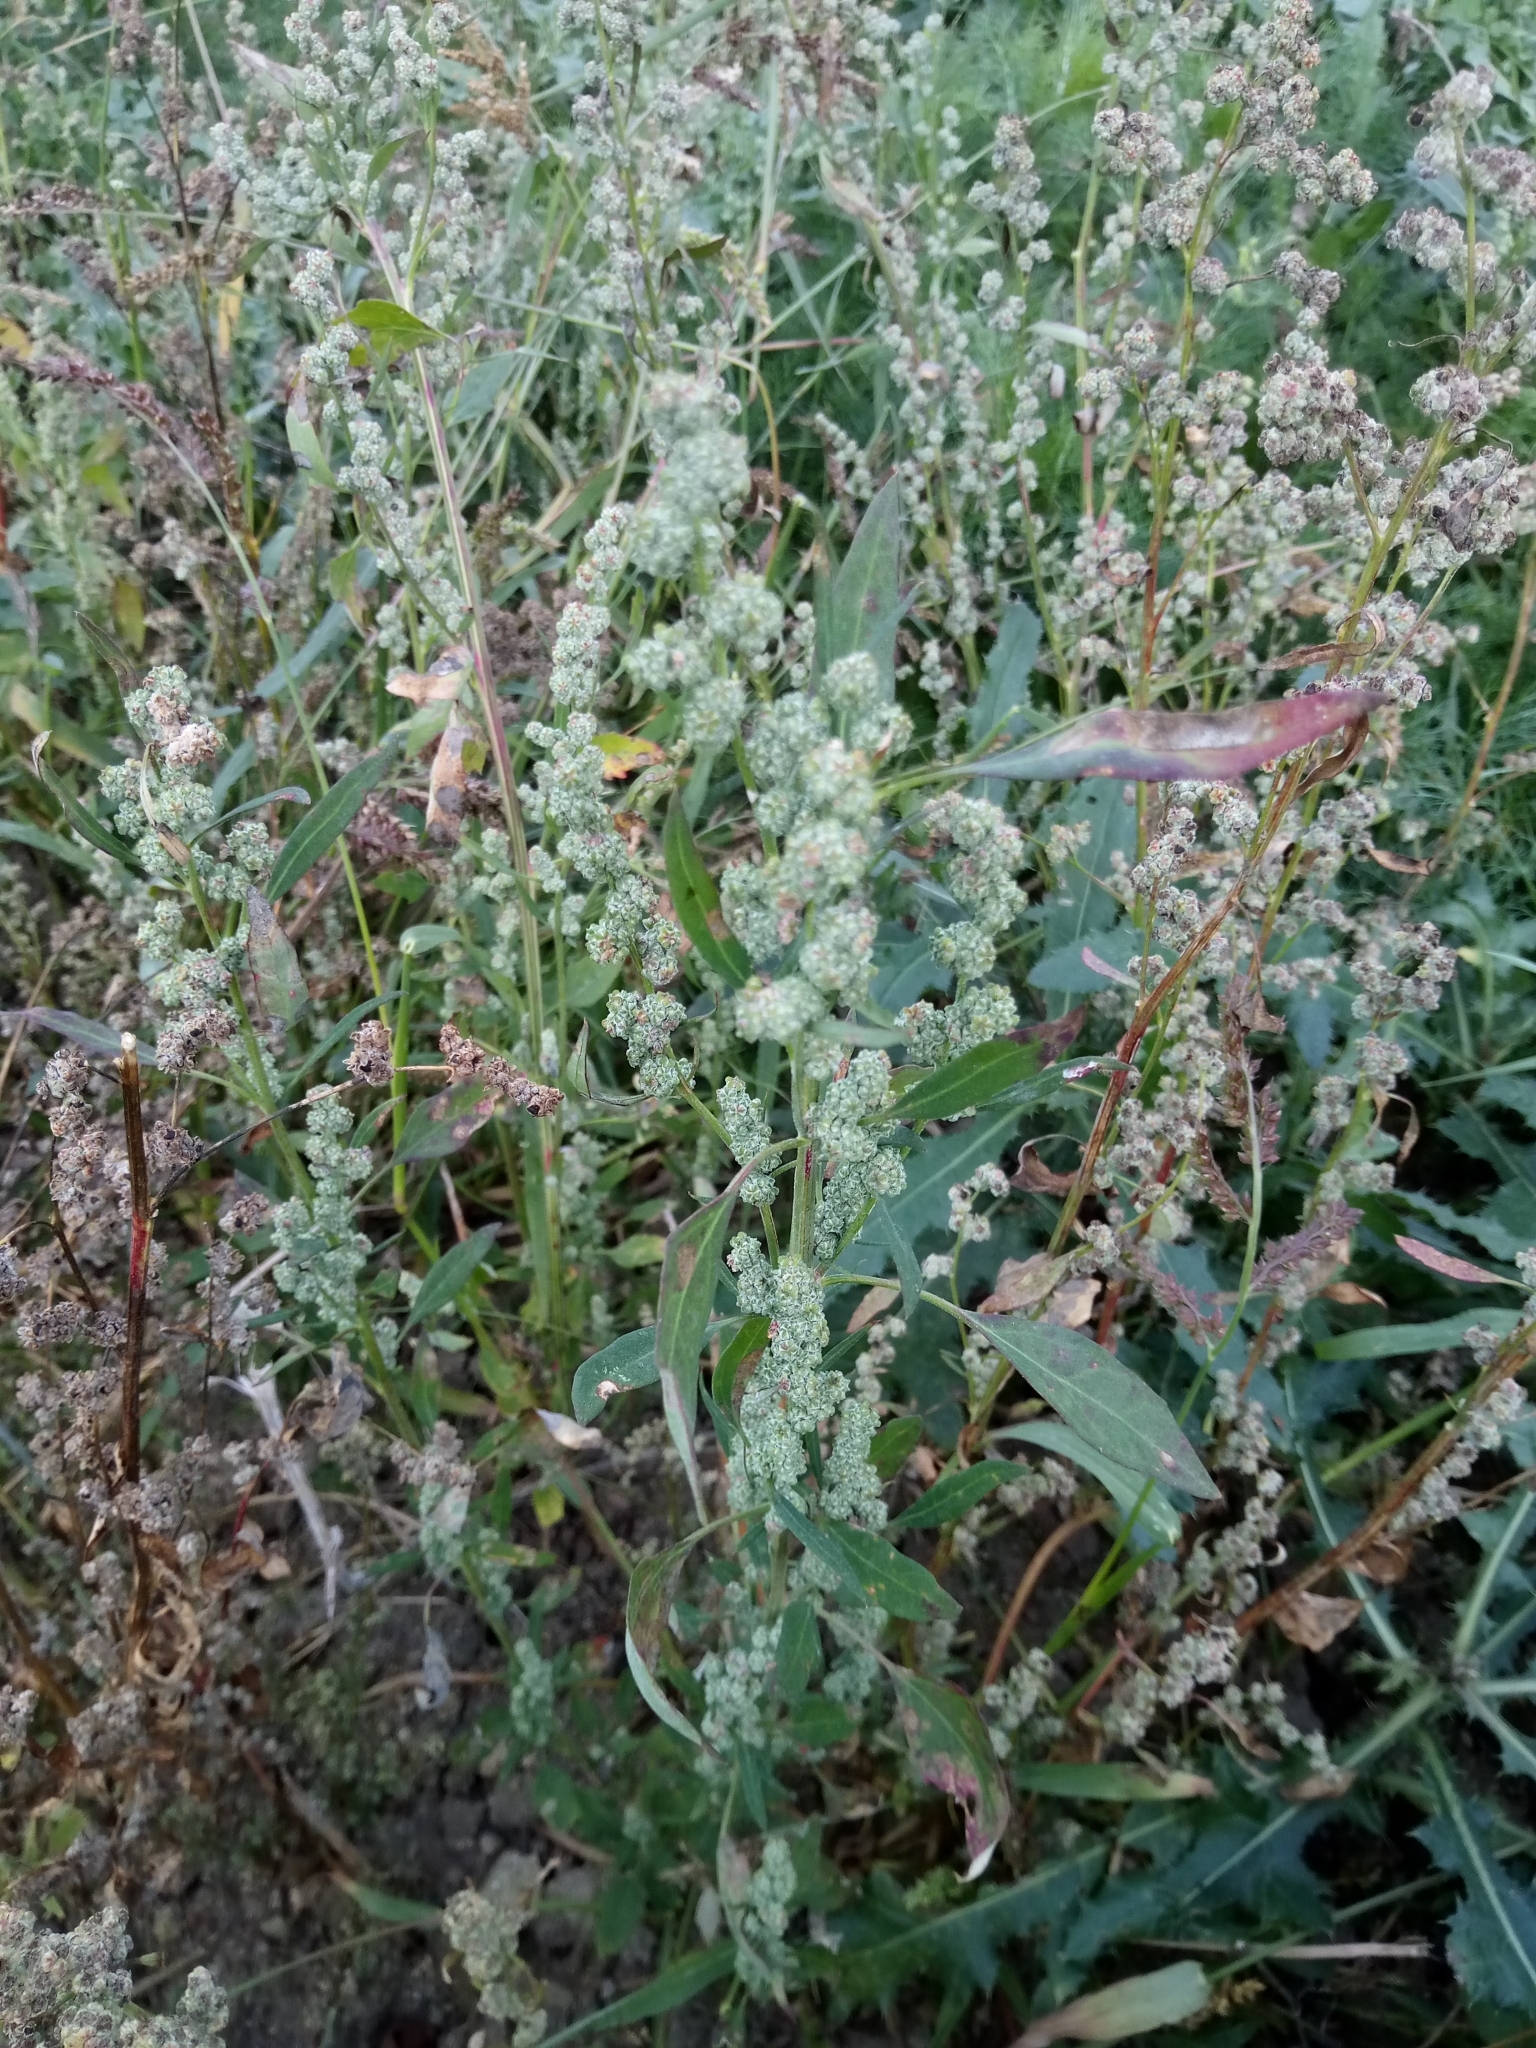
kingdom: Plantae
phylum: Tracheophyta
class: Magnoliopsida
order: Caryophyllales
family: Amaranthaceae
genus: Chenopodium
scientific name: Chenopodium album
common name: Fat-hen
